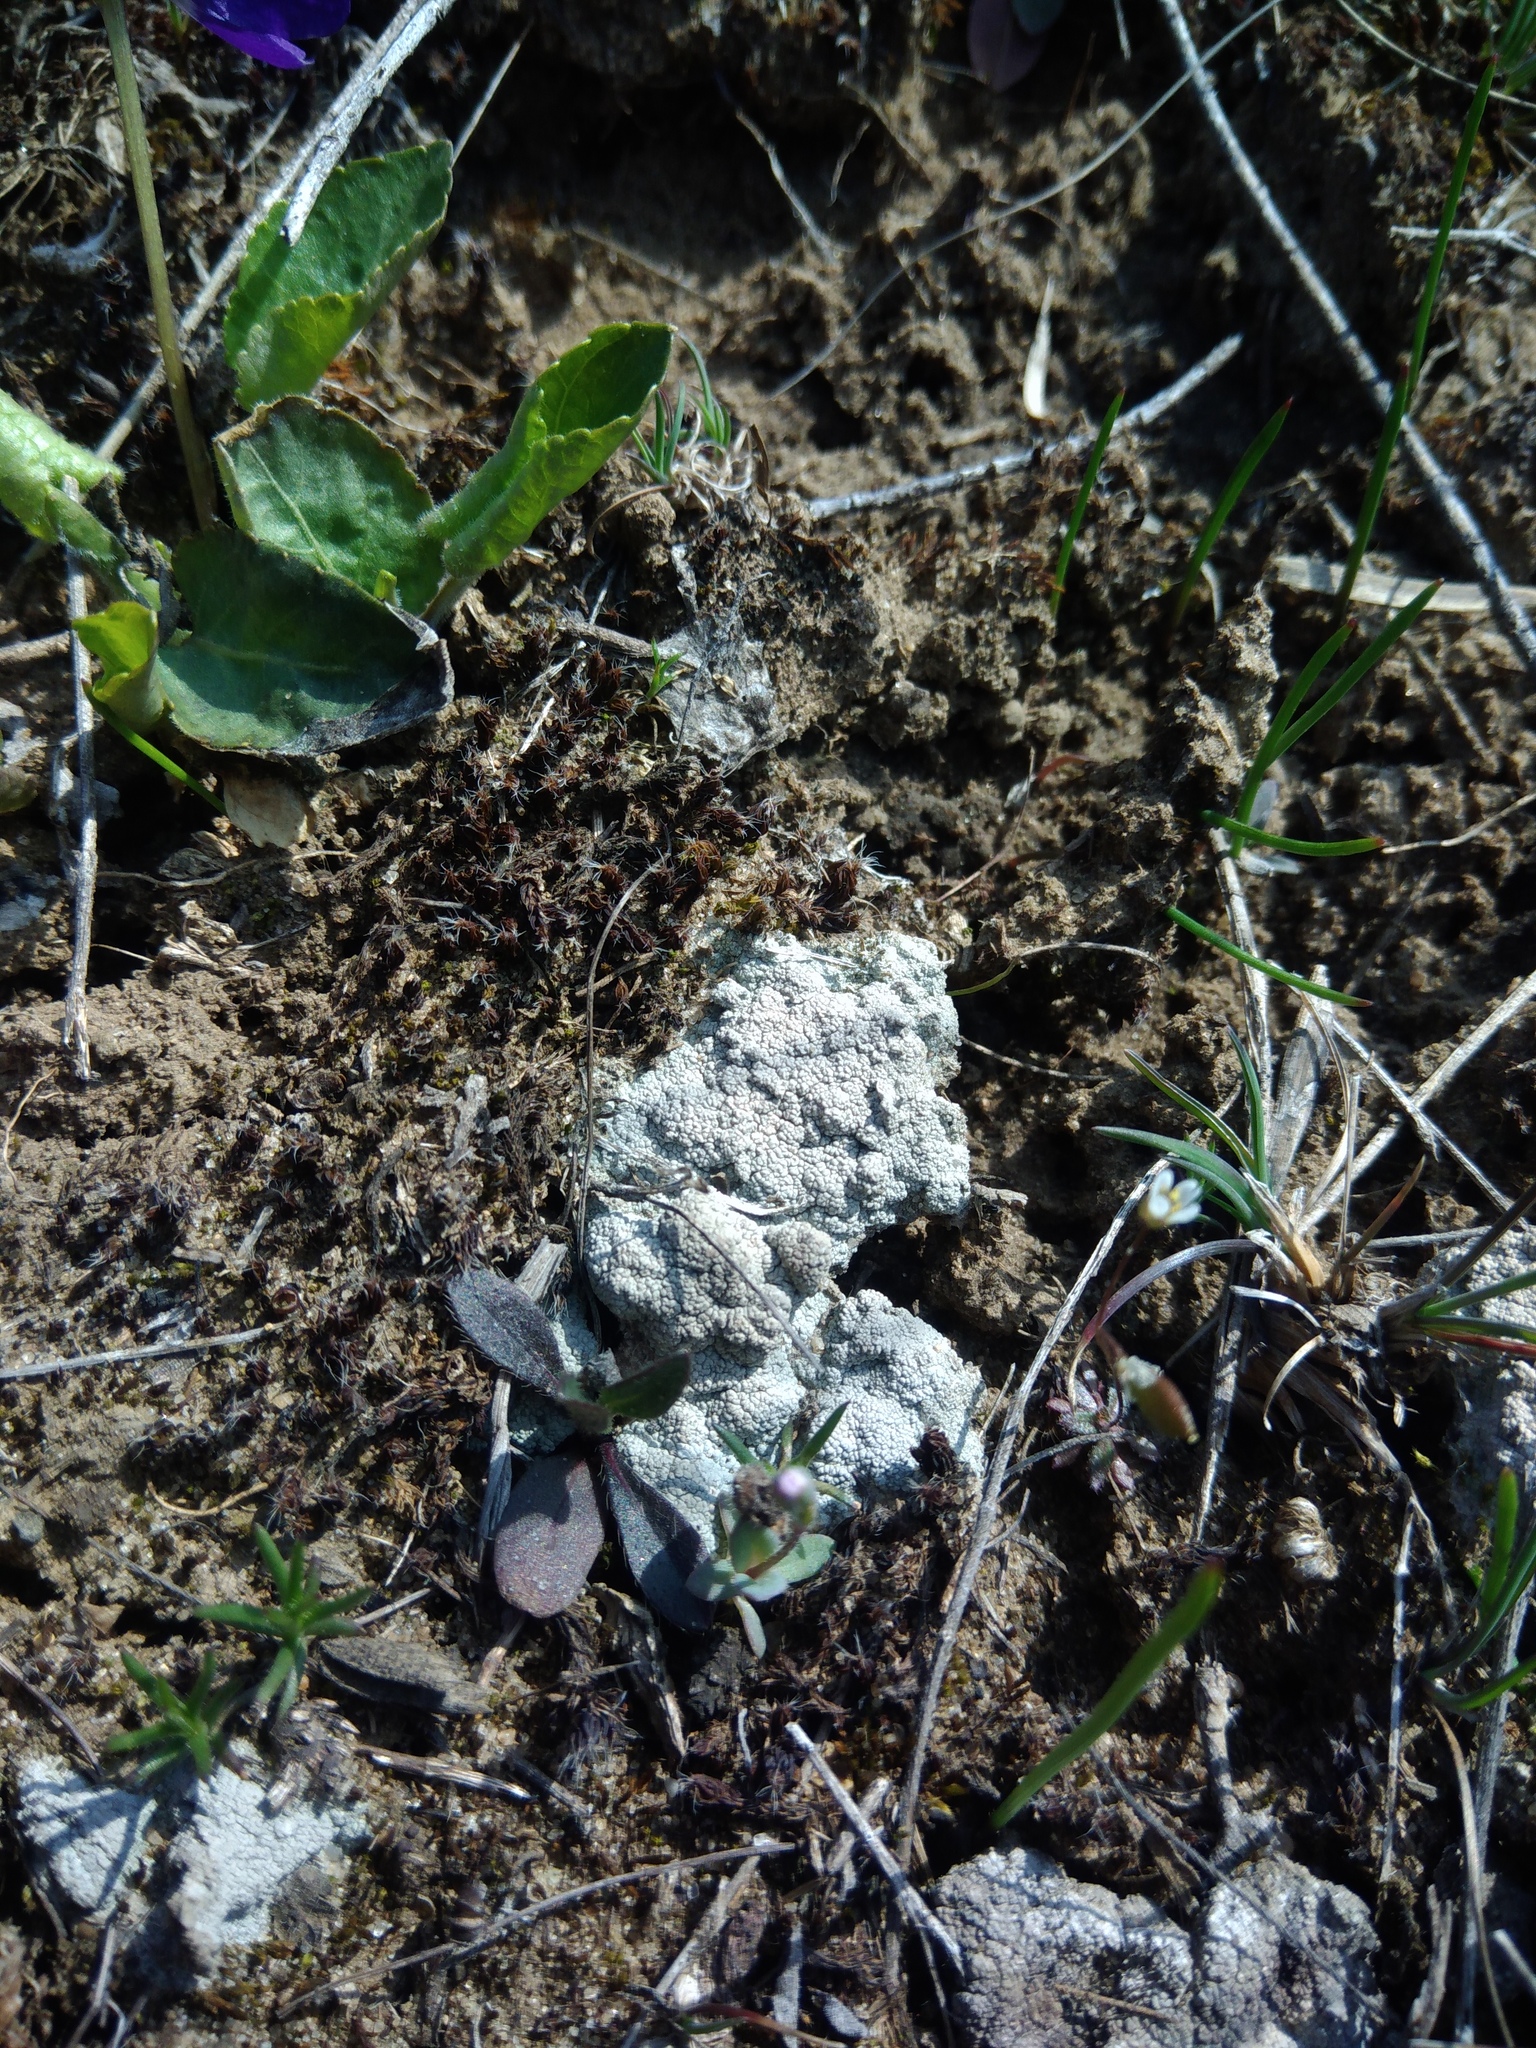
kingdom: Fungi
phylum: Ascomycota
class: Lecanoromycetes
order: Ostropales
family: Graphidaceae
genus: Diploschistes
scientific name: Diploschistes diacapsis
